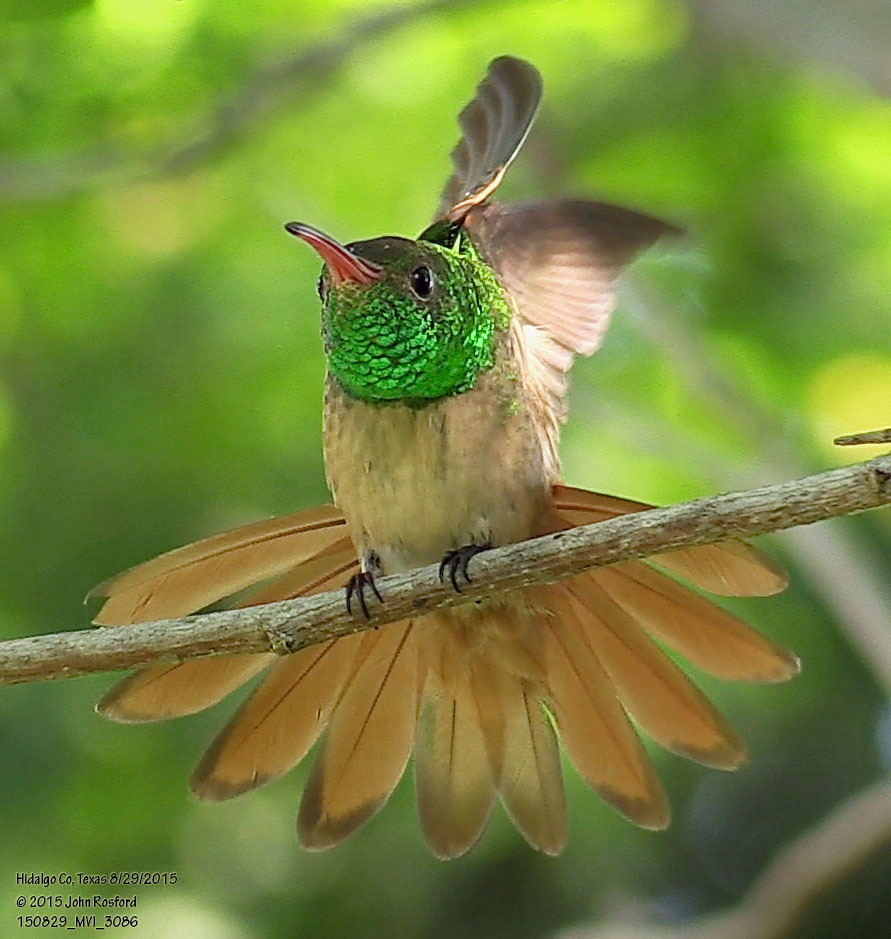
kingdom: Animalia
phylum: Chordata
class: Aves
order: Apodiformes
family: Trochilidae
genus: Amazilia
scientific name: Amazilia yucatanensis
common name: Buff-bellied hummingbird
